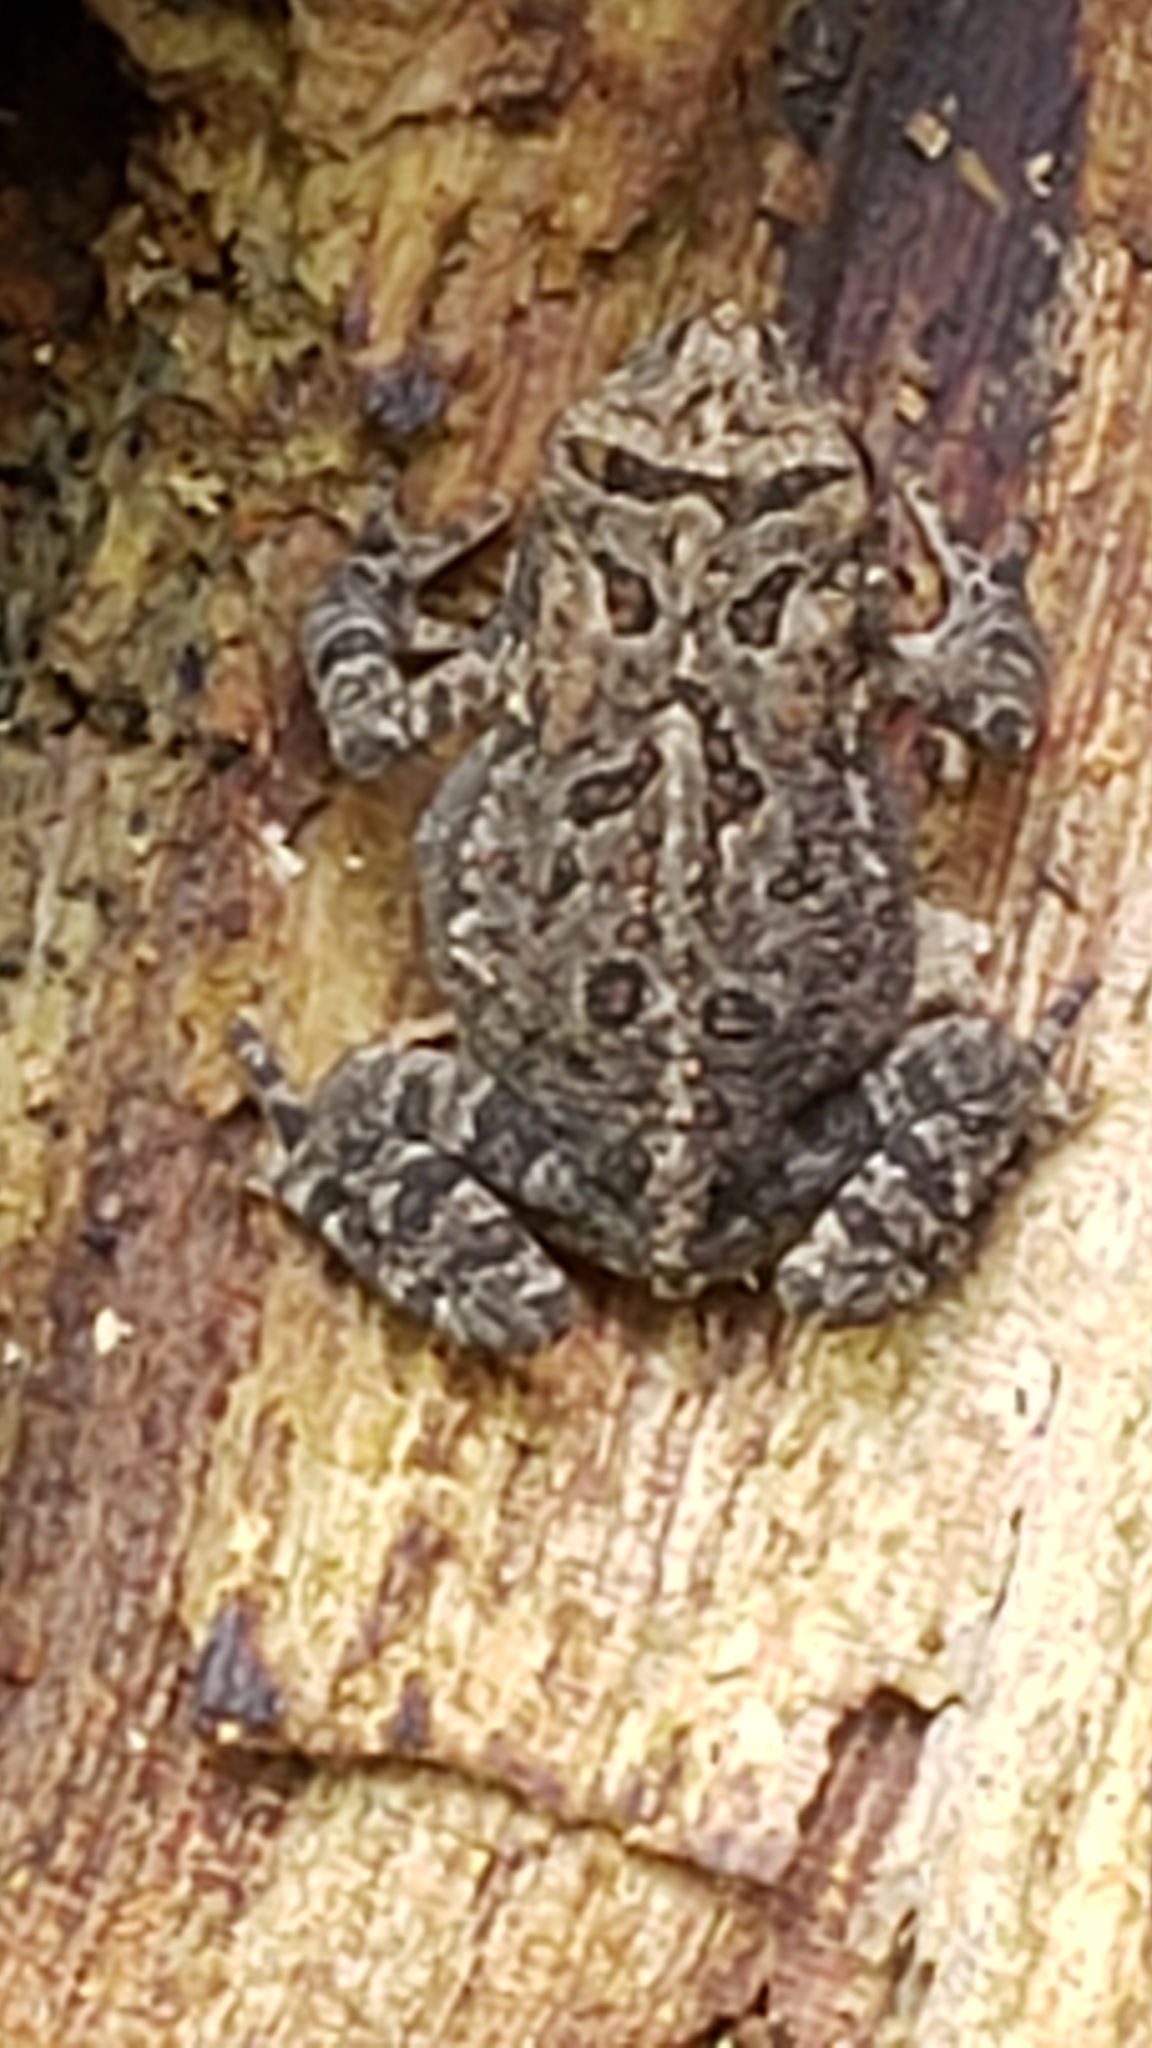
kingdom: Animalia
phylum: Chordata
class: Amphibia
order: Anura
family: Bufonidae
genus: Anaxyrus
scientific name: Anaxyrus americanus
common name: American toad
